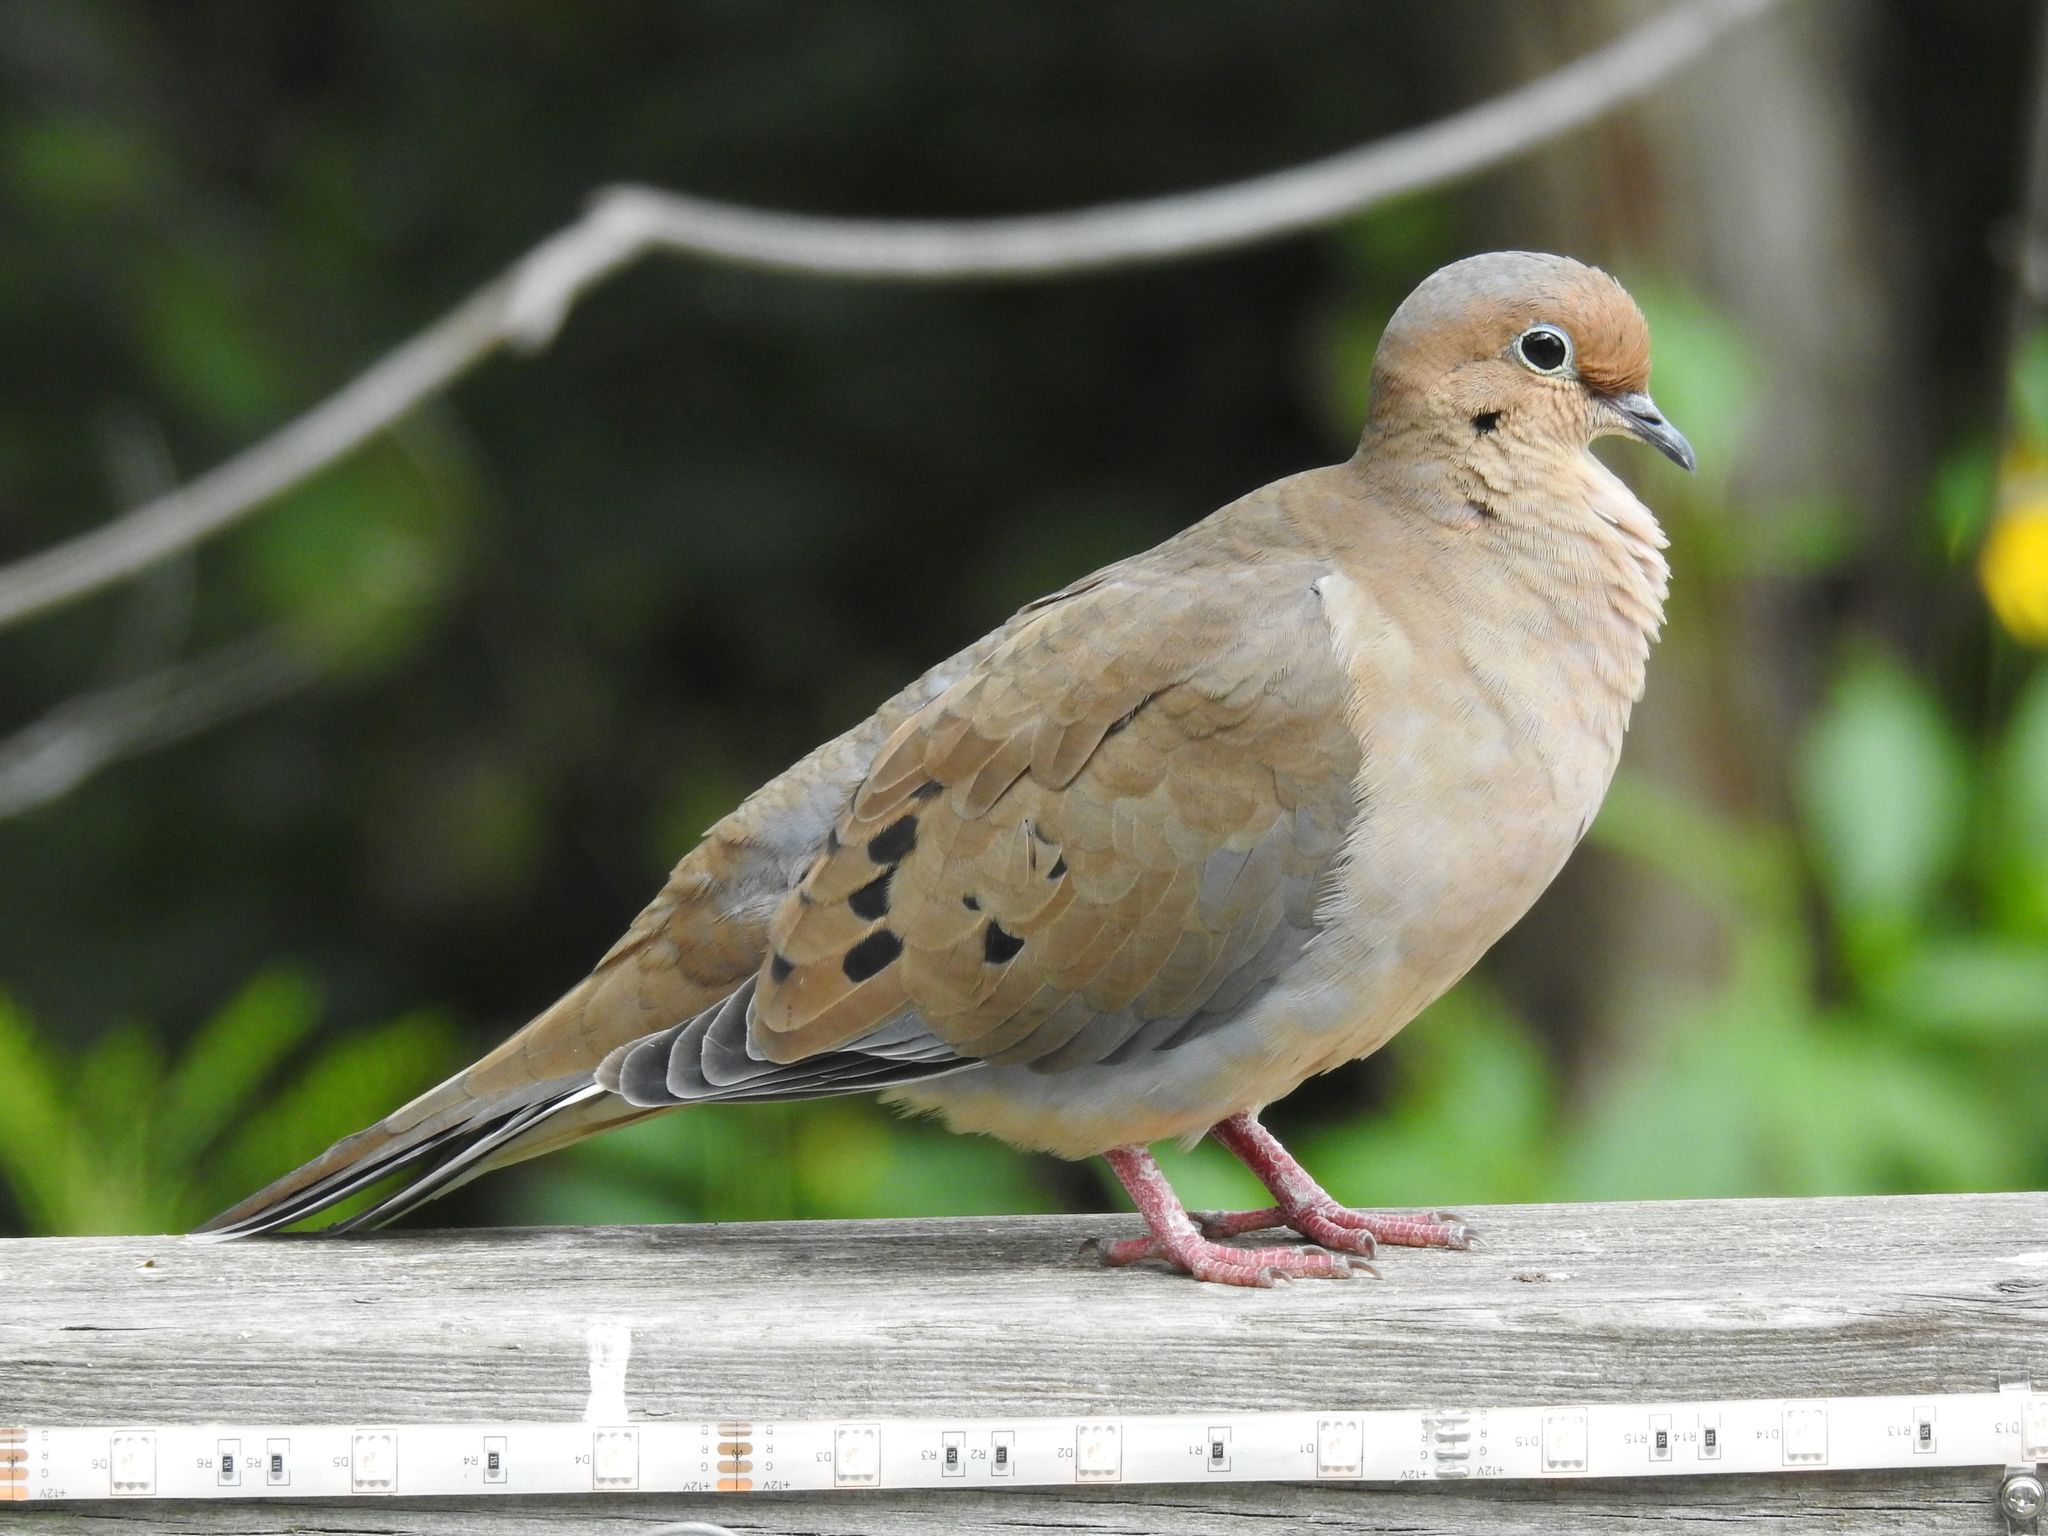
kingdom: Animalia
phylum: Chordata
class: Aves
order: Columbiformes
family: Columbidae
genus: Zenaida
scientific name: Zenaida macroura
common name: Mourning dove
